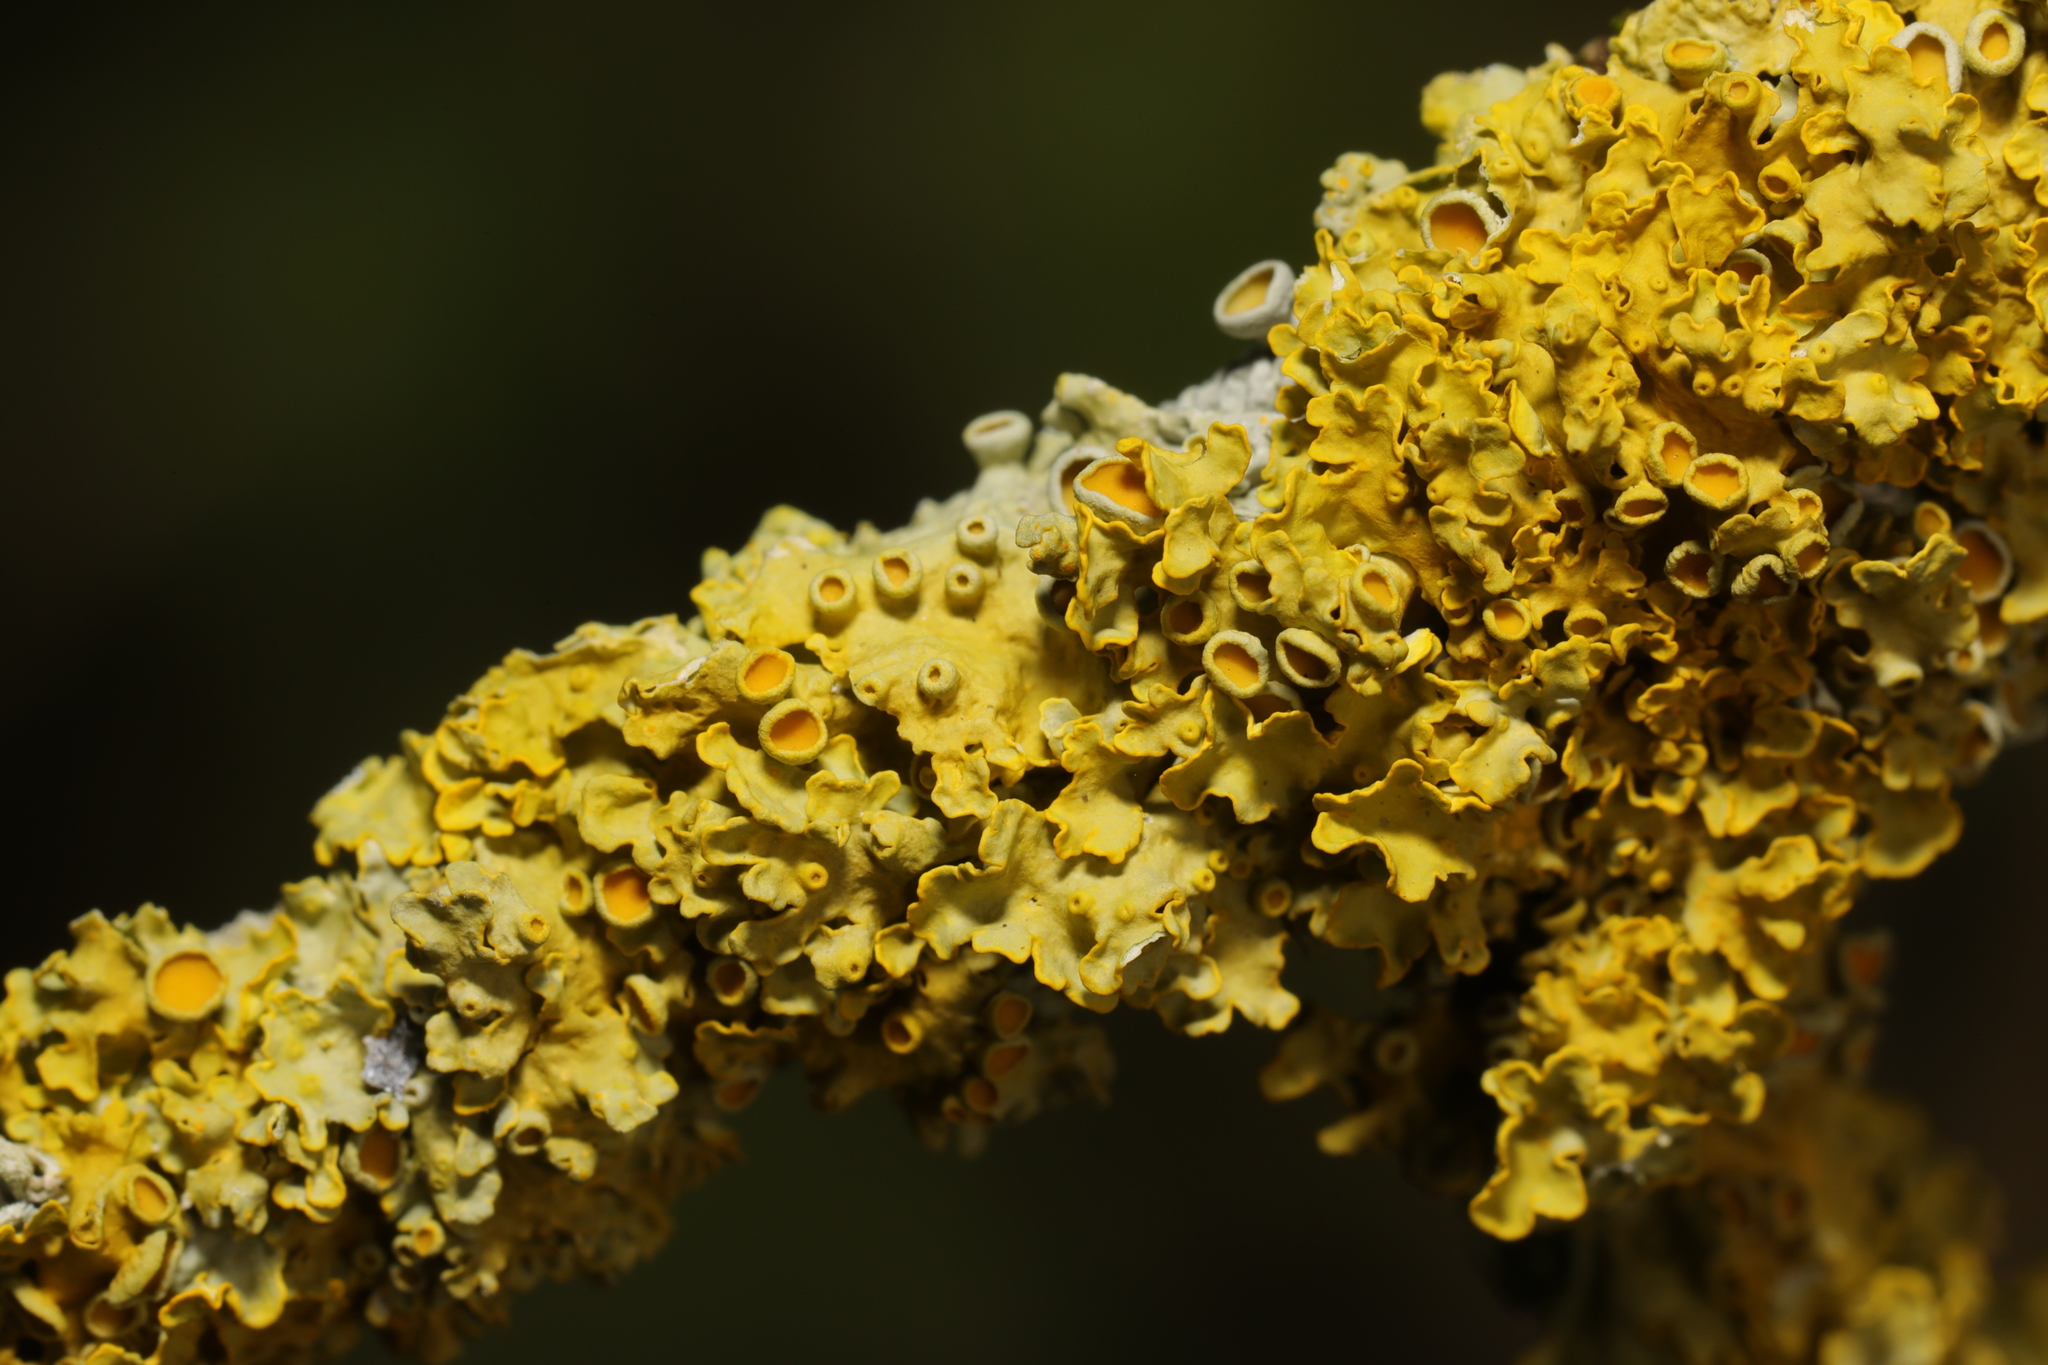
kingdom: Fungi
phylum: Ascomycota
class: Lecanoromycetes
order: Teloschistales
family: Teloschistaceae
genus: Xanthoria
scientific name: Xanthoria parietina
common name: Common orange lichen
